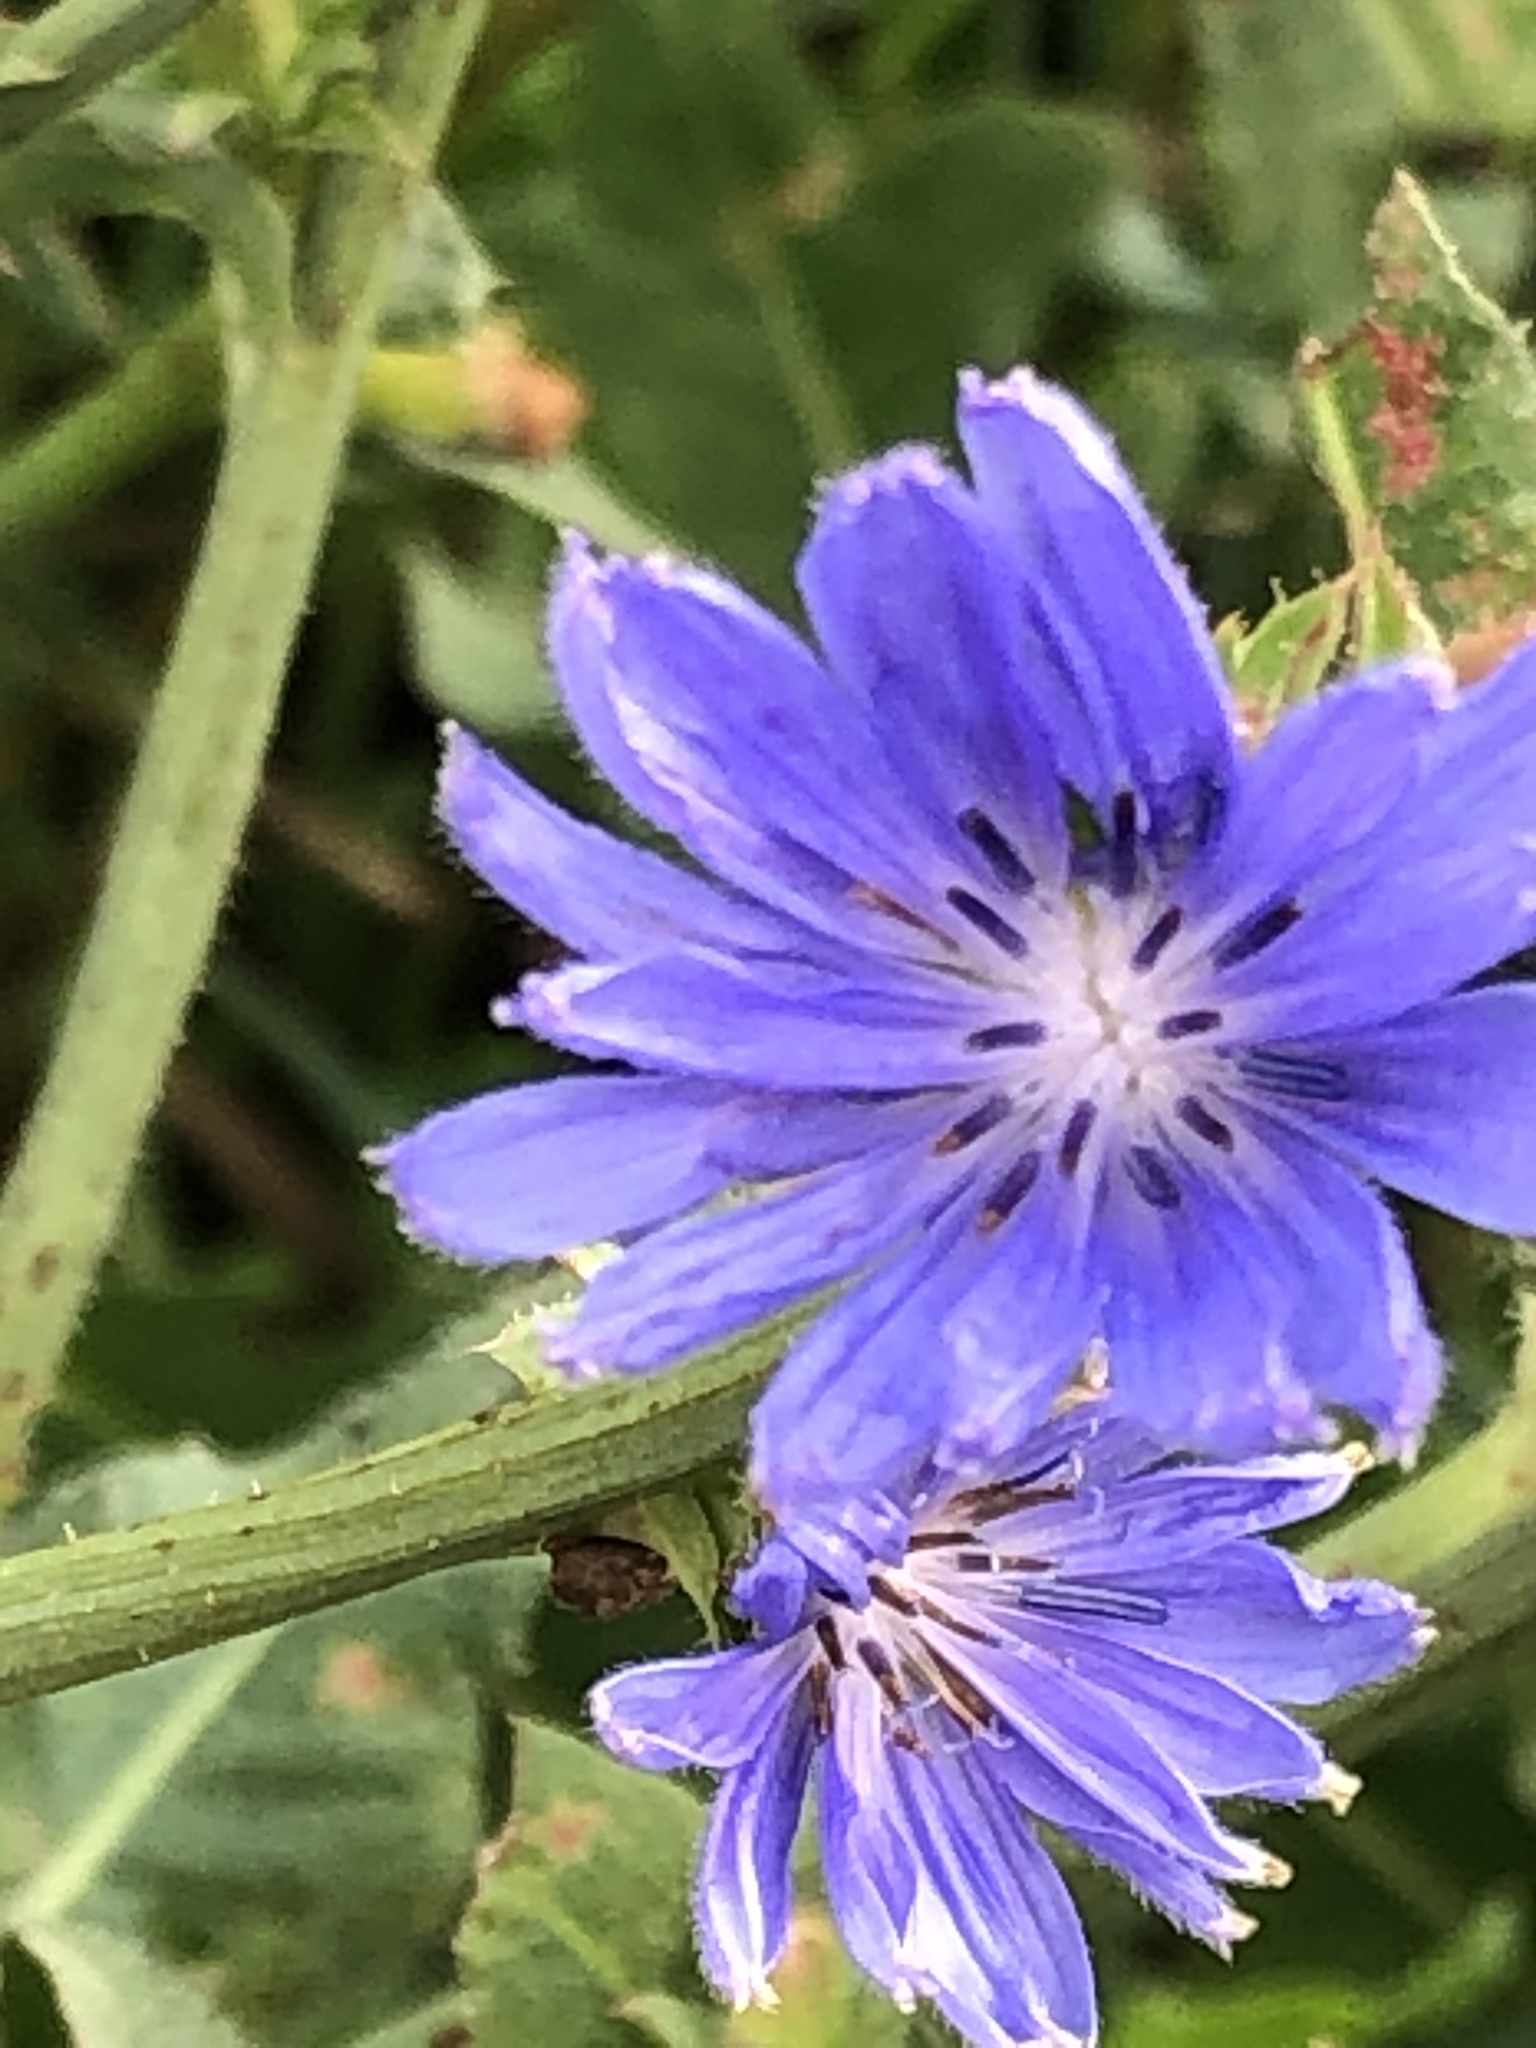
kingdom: Plantae
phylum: Tracheophyta
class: Magnoliopsida
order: Asterales
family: Asteraceae
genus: Cichorium
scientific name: Cichorium intybus
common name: Chicory
